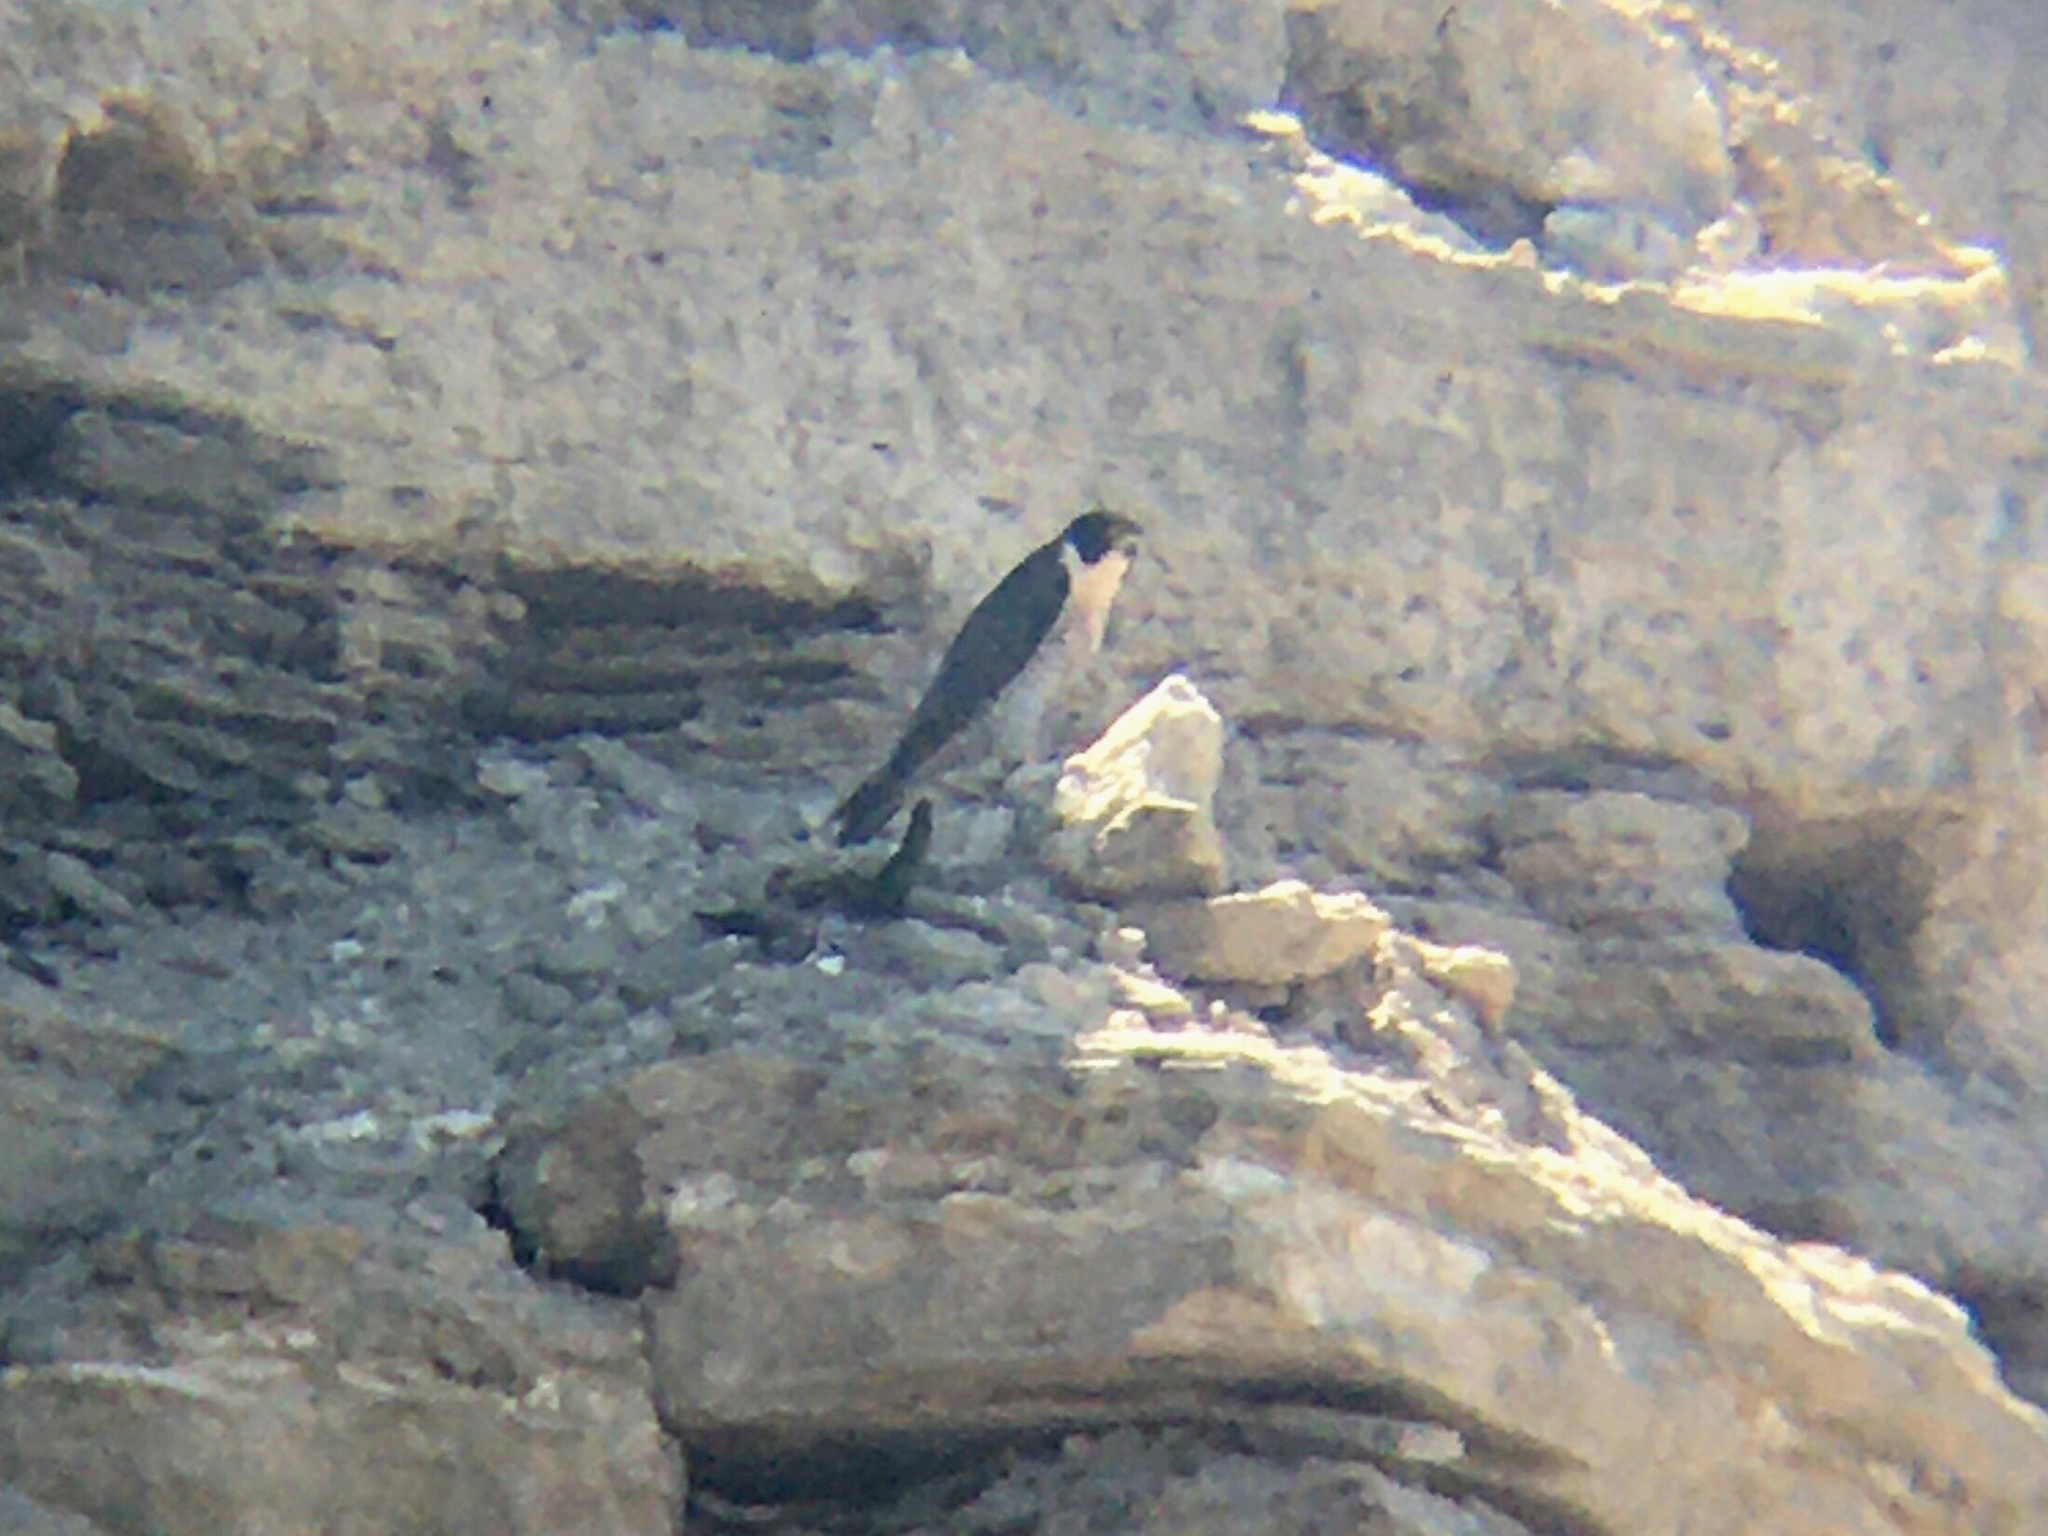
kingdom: Animalia
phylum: Chordata
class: Aves
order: Falconiformes
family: Falconidae
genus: Falco
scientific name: Falco peregrinus
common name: Peregrine falcon
